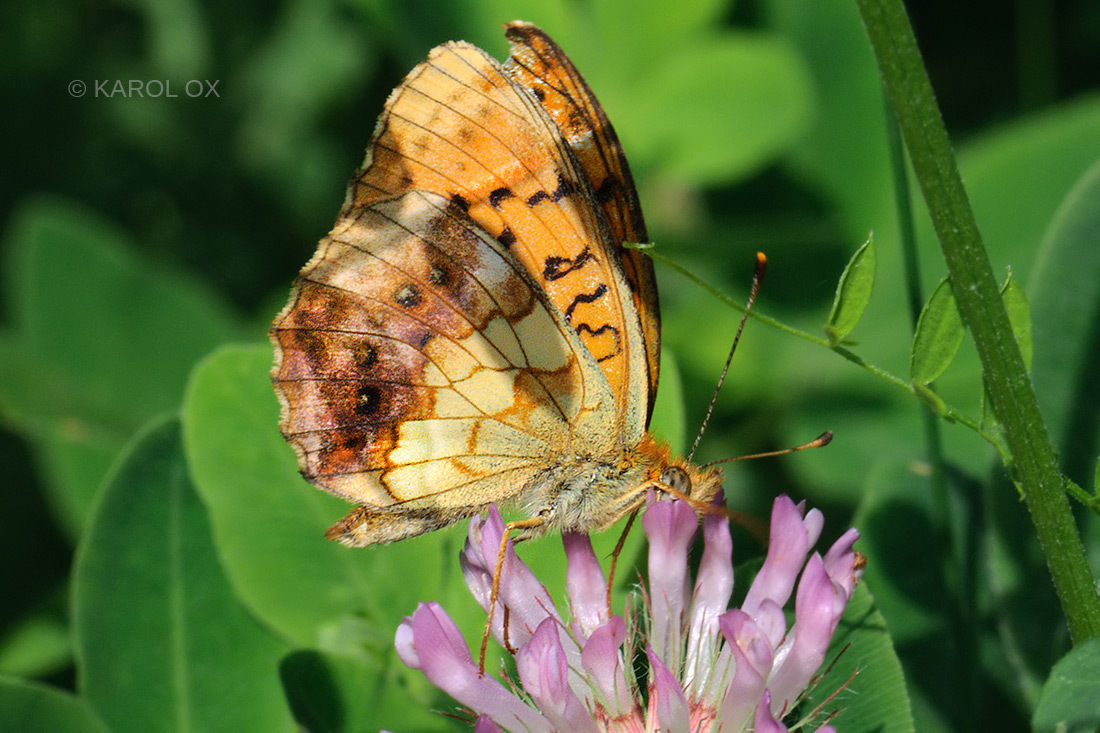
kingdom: Animalia
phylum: Arthropoda
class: Insecta
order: Lepidoptera
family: Nymphalidae
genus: Brenthis
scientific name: Brenthis daphne
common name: Marbled fritillary
